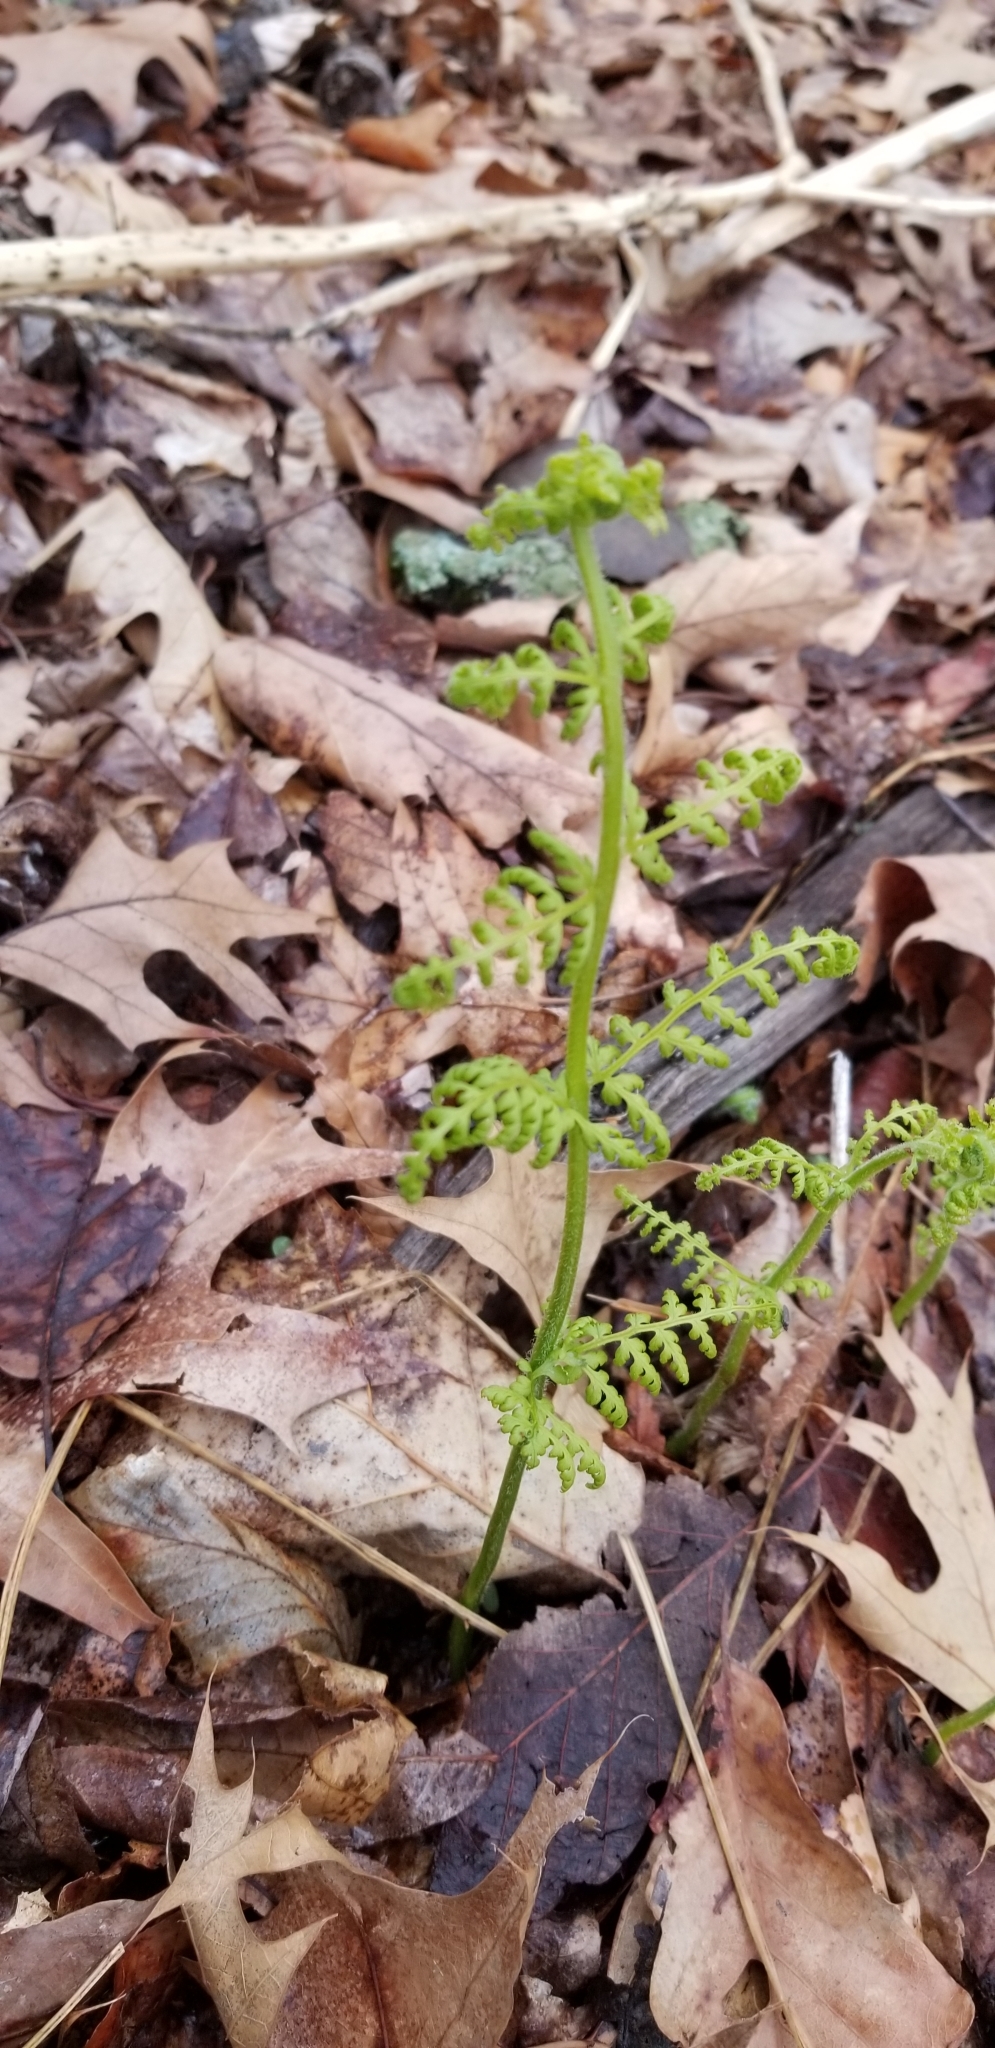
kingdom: Plantae
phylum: Tracheophyta
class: Polypodiopsida
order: Polypodiales
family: Dennstaedtiaceae
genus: Sitobolium
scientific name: Sitobolium punctilobum
